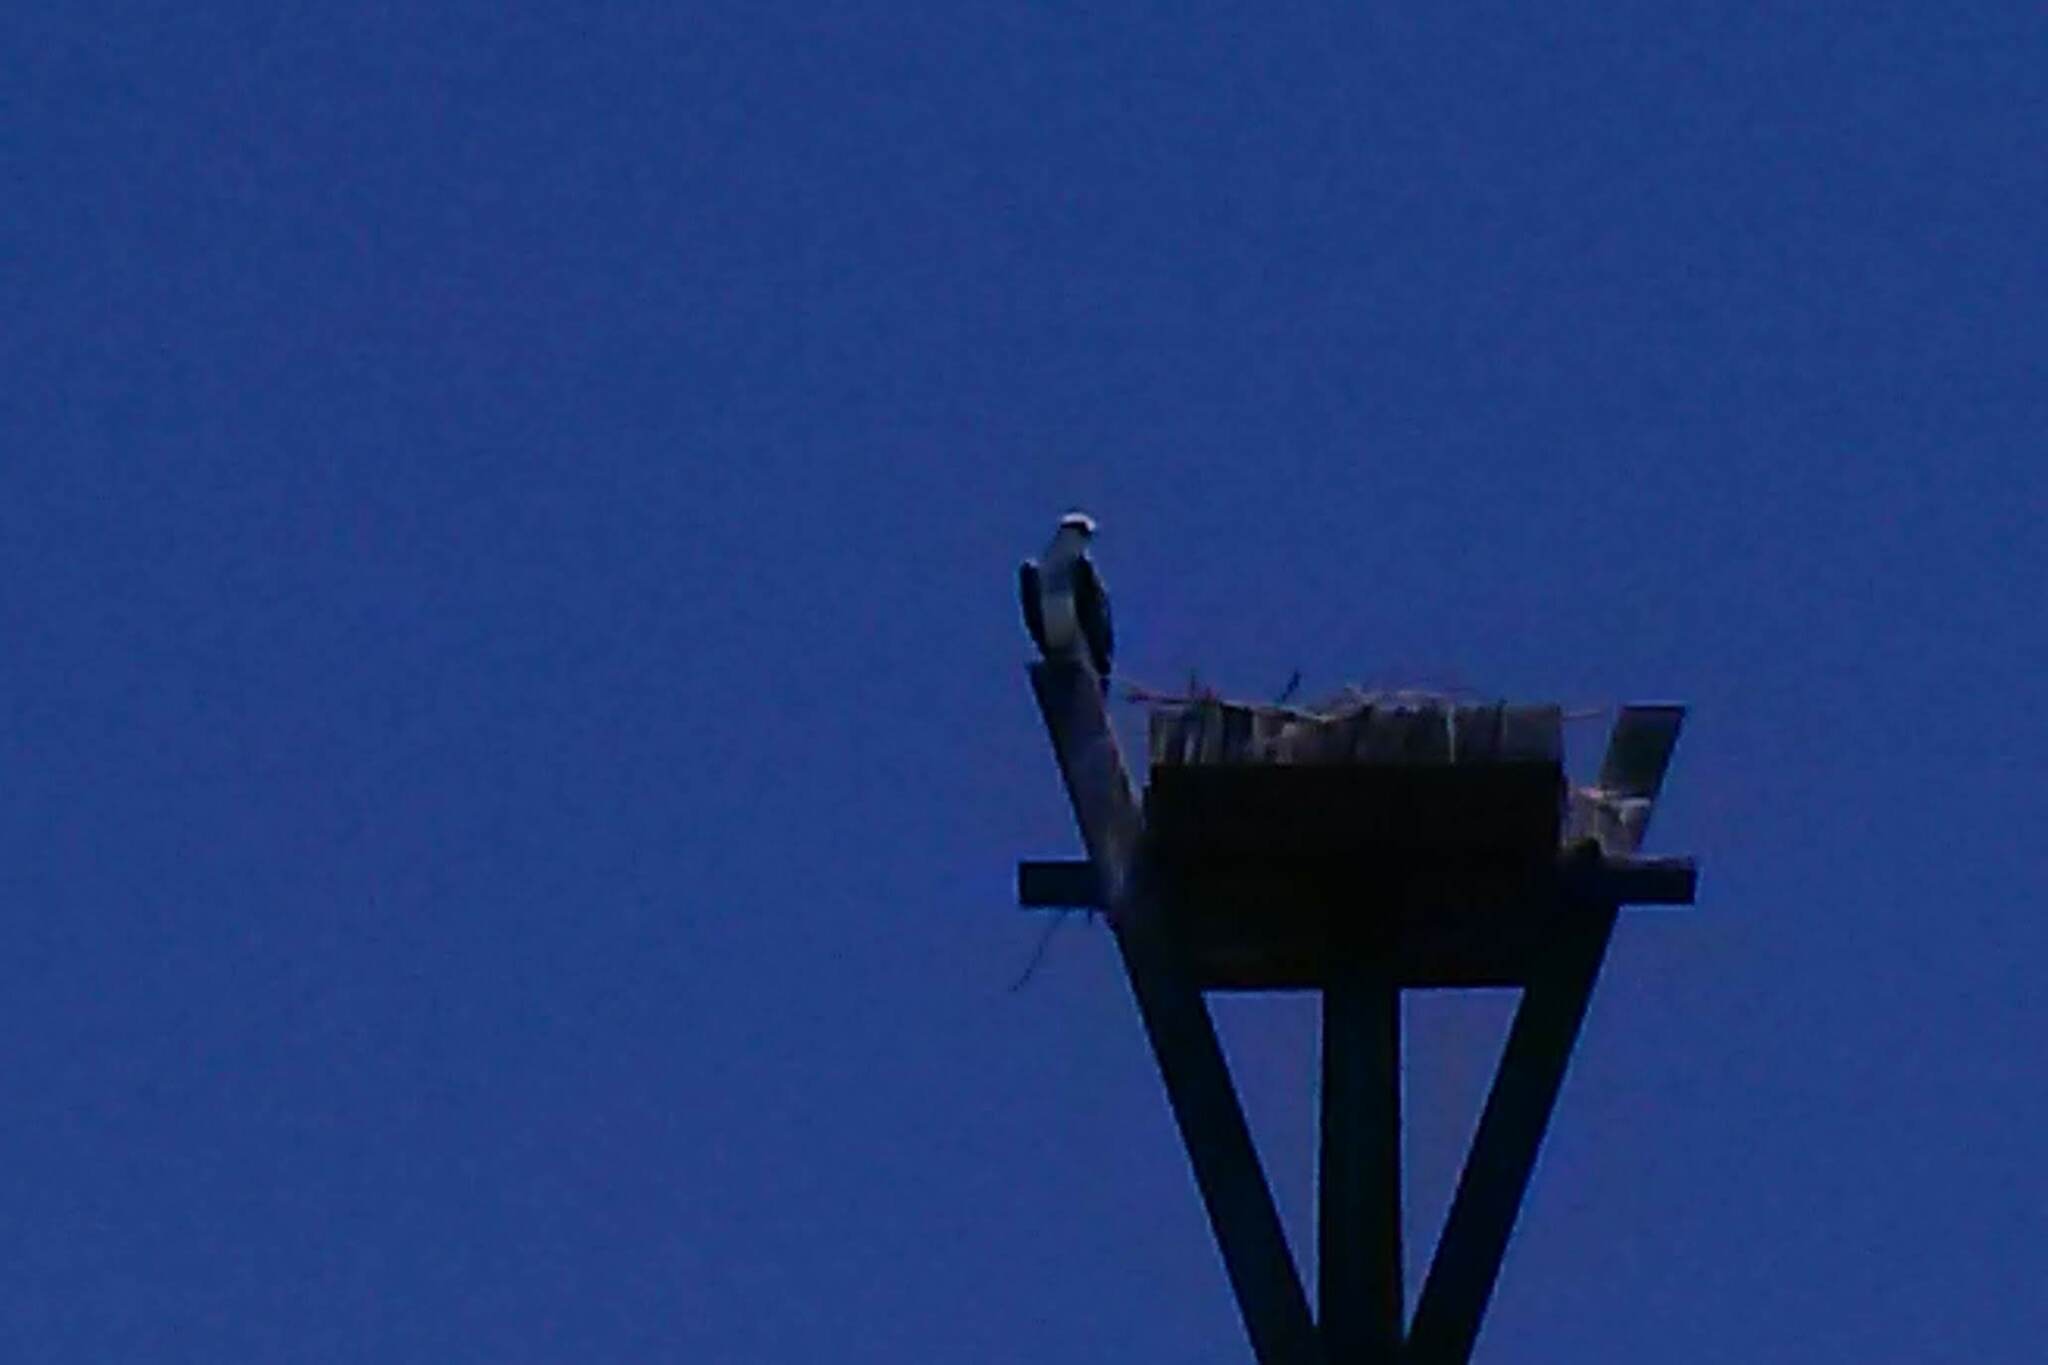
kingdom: Animalia
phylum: Chordata
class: Aves
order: Accipitriformes
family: Pandionidae
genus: Pandion
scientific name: Pandion haliaetus
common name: Osprey
